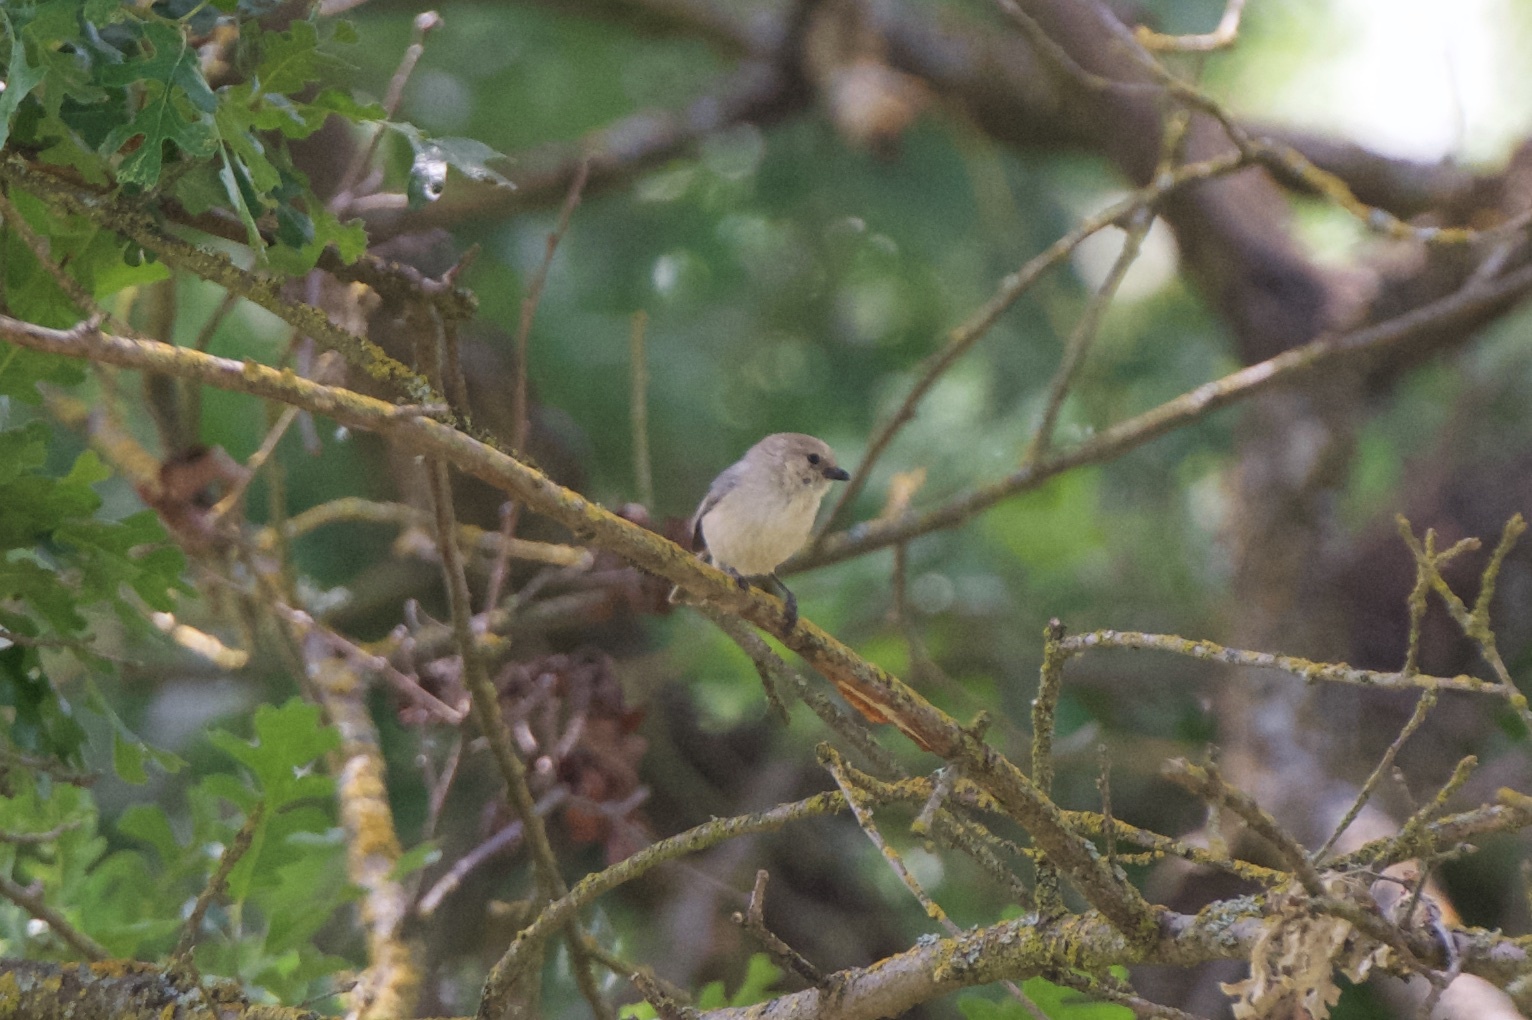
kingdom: Animalia
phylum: Chordata
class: Aves
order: Passeriformes
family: Aegithalidae
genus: Psaltriparus
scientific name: Psaltriparus minimus
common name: American bushtit
